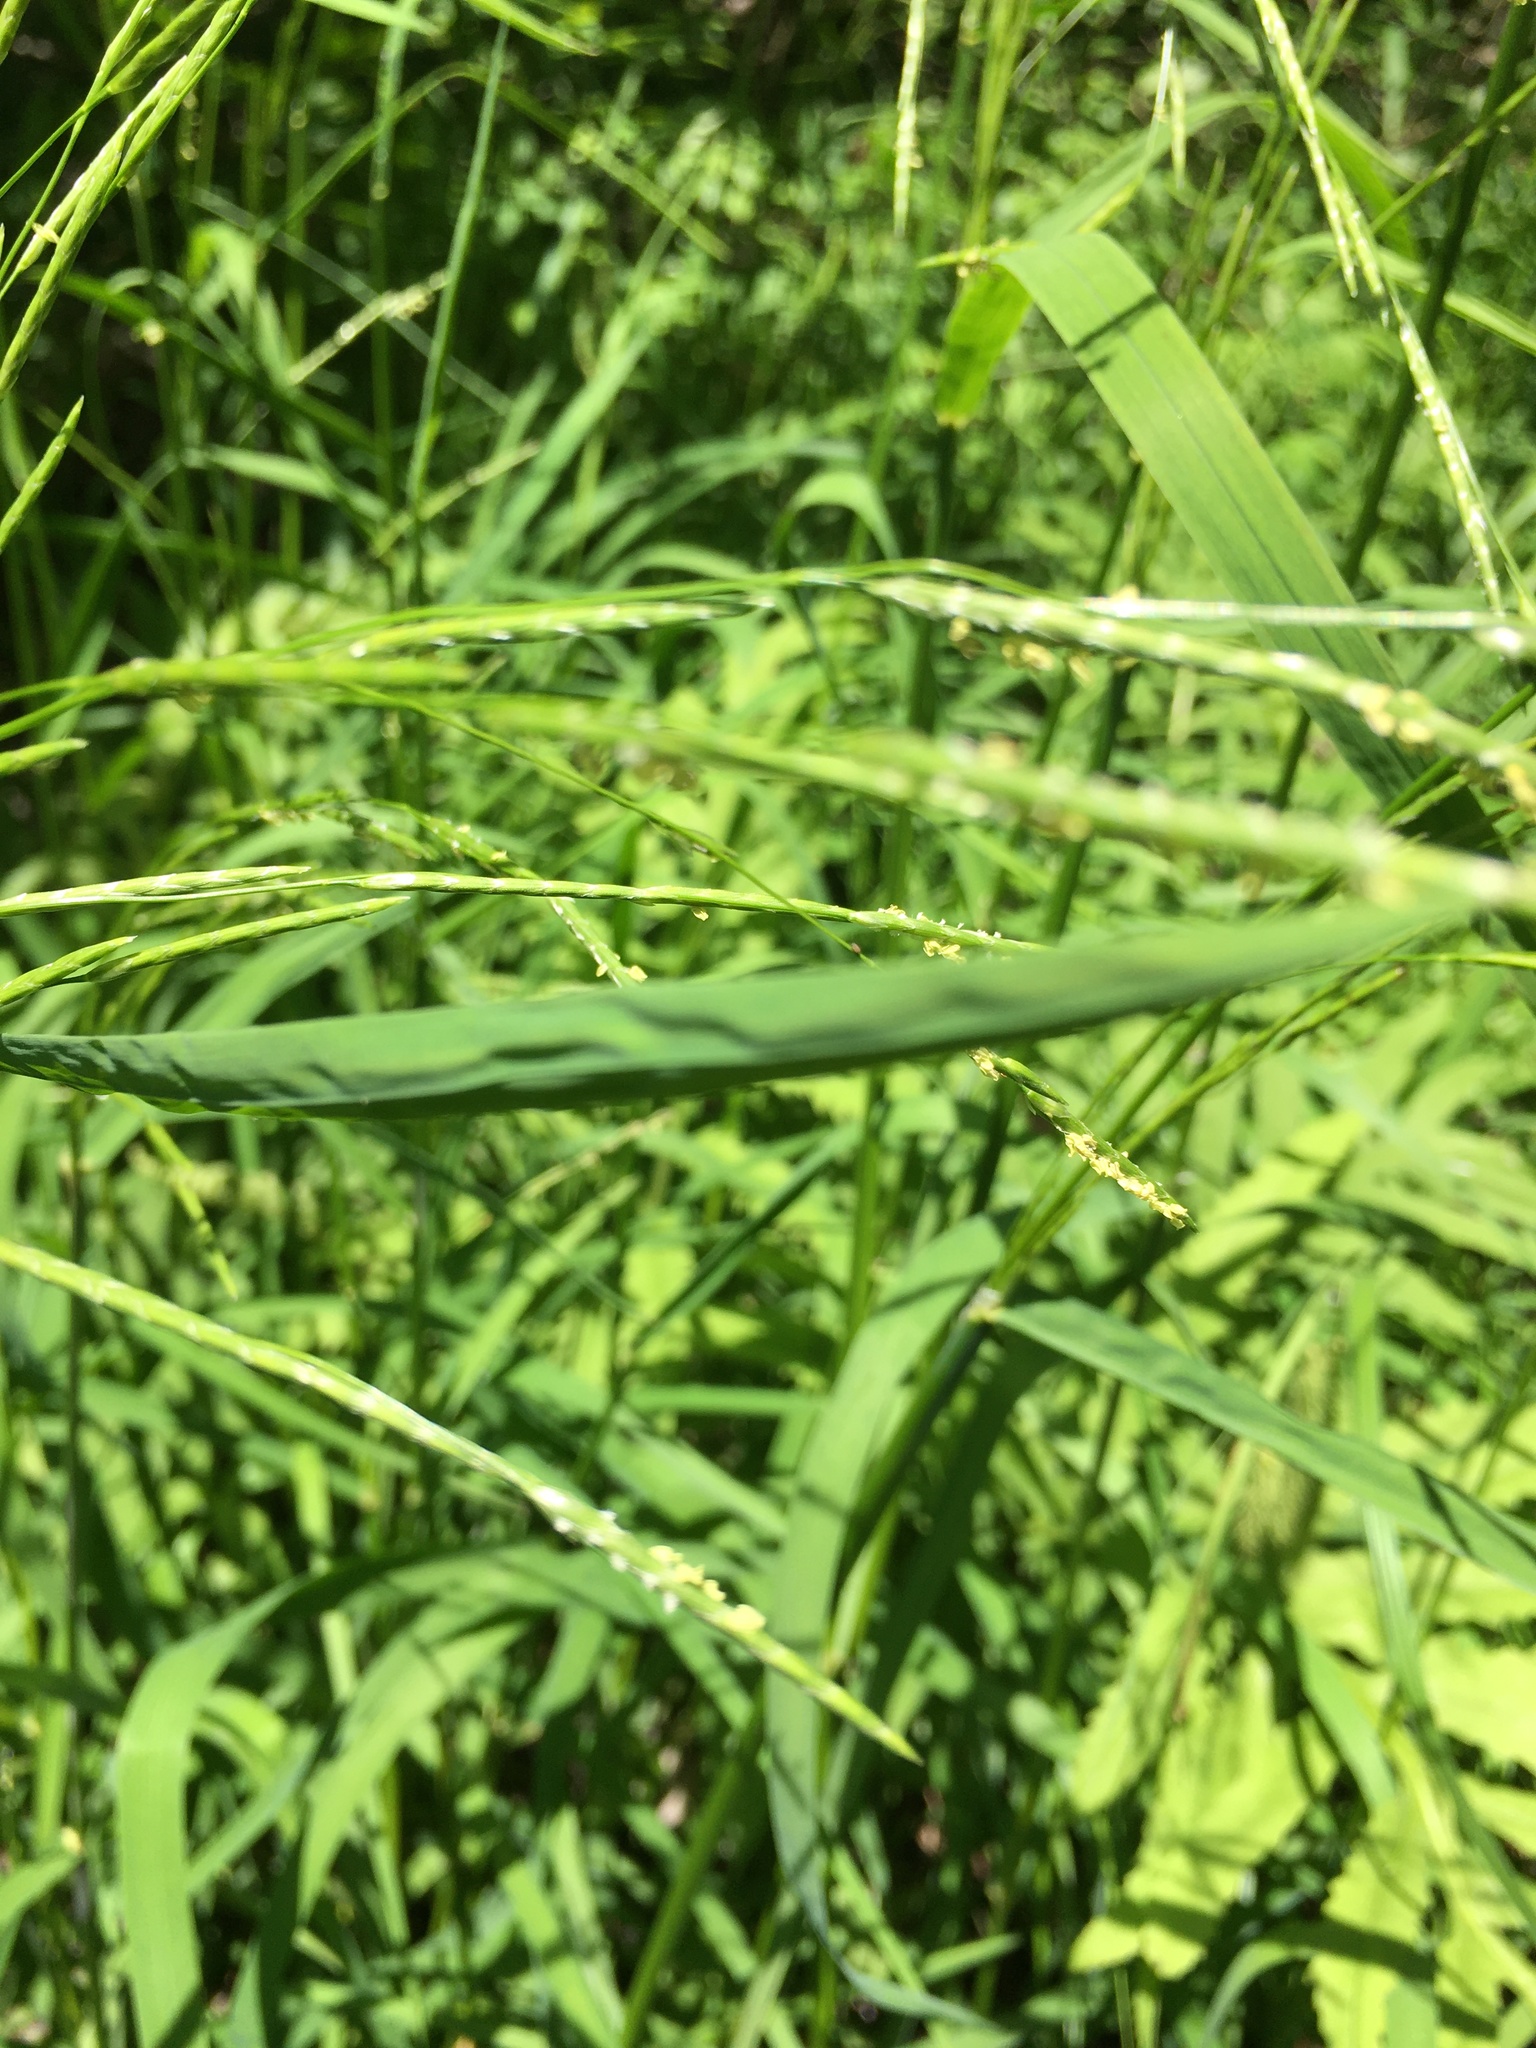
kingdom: Plantae
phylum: Tracheophyta
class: Liliopsida
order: Poales
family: Poaceae
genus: Glyceria
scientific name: Glyceria septentrionalis
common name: Eastern mannagrass
